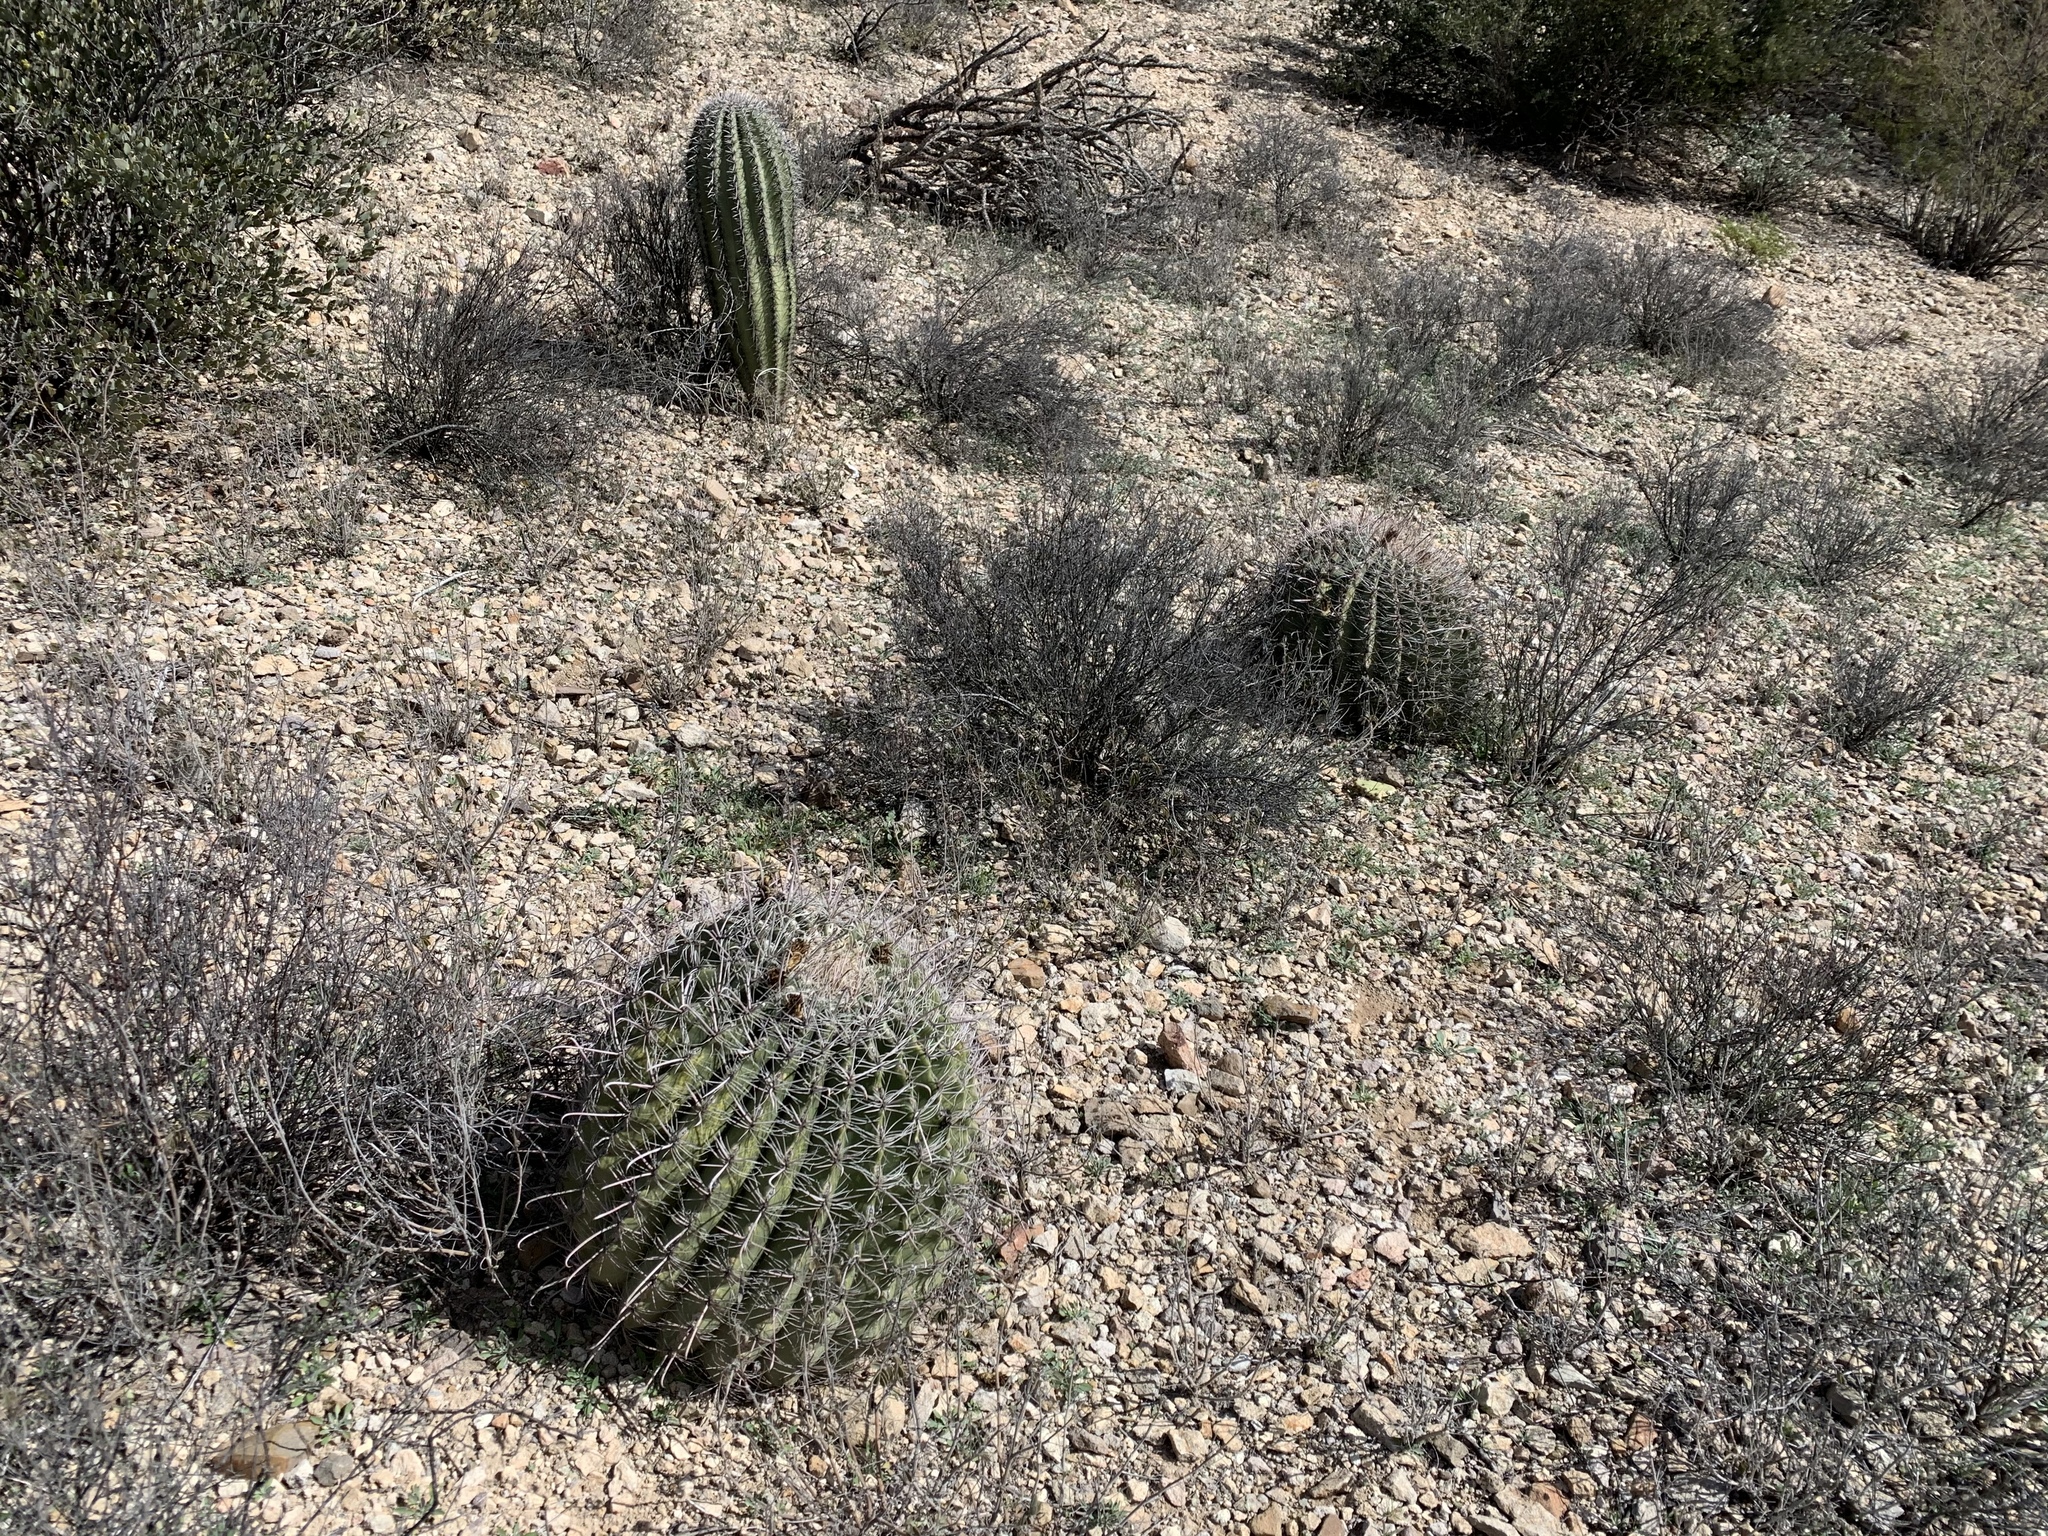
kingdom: Plantae
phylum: Tracheophyta
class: Magnoliopsida
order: Caryophyllales
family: Cactaceae
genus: Ferocactus
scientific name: Ferocactus wislizeni
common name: Candy barrel cactus
